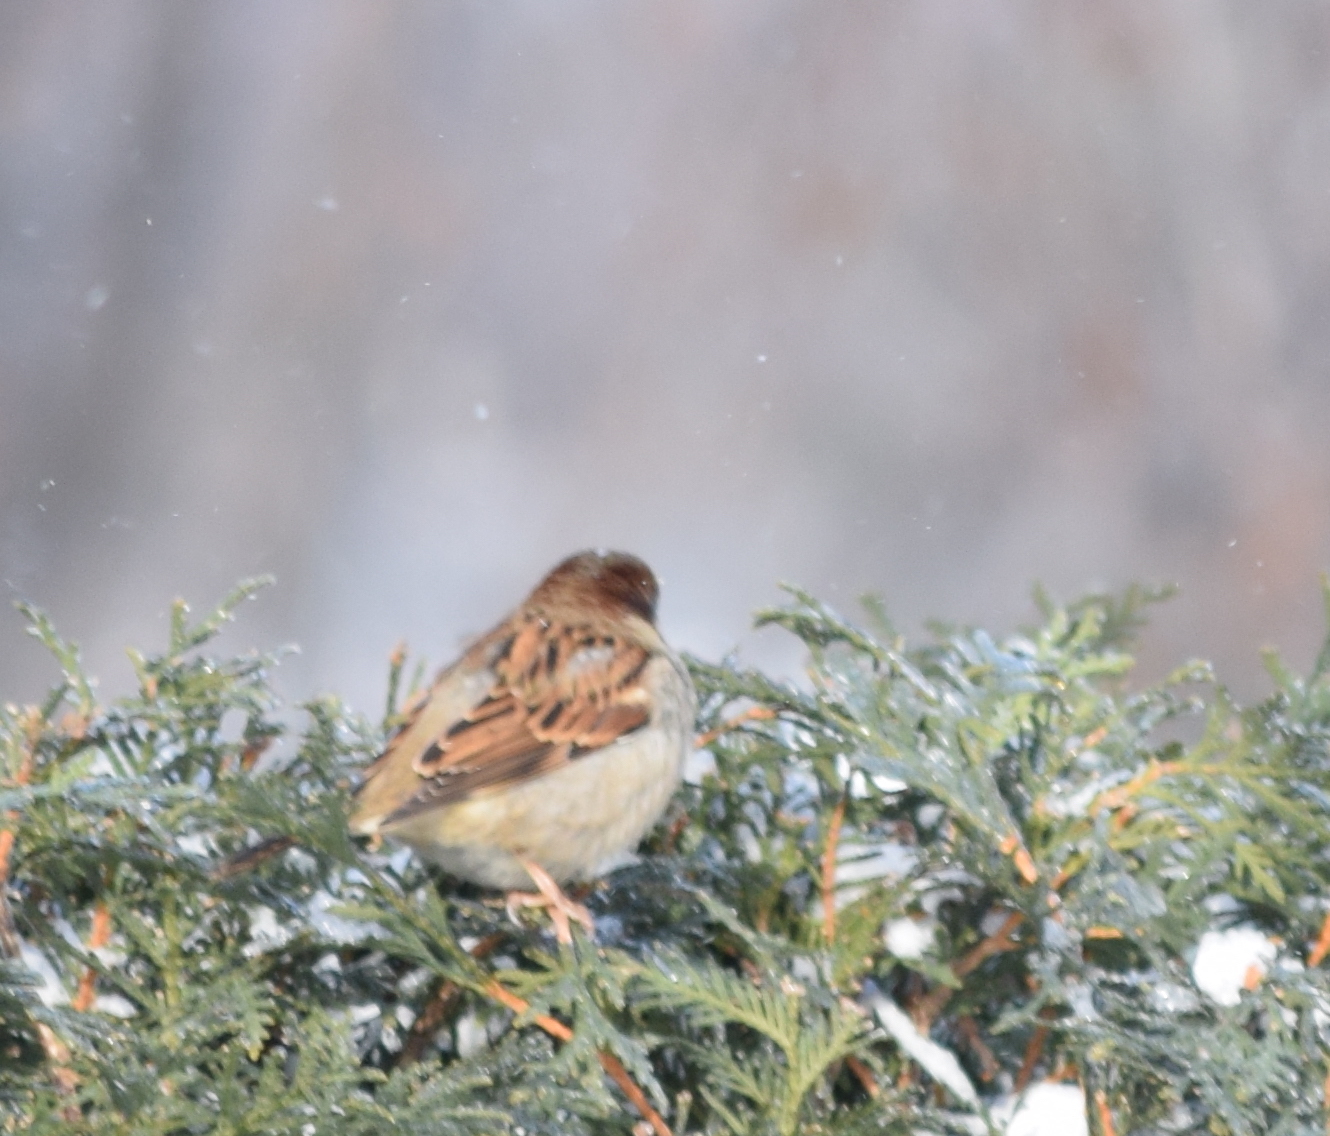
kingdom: Animalia
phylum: Chordata
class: Aves
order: Passeriformes
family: Passeridae
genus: Passer
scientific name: Passer domesticus
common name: House sparrow
